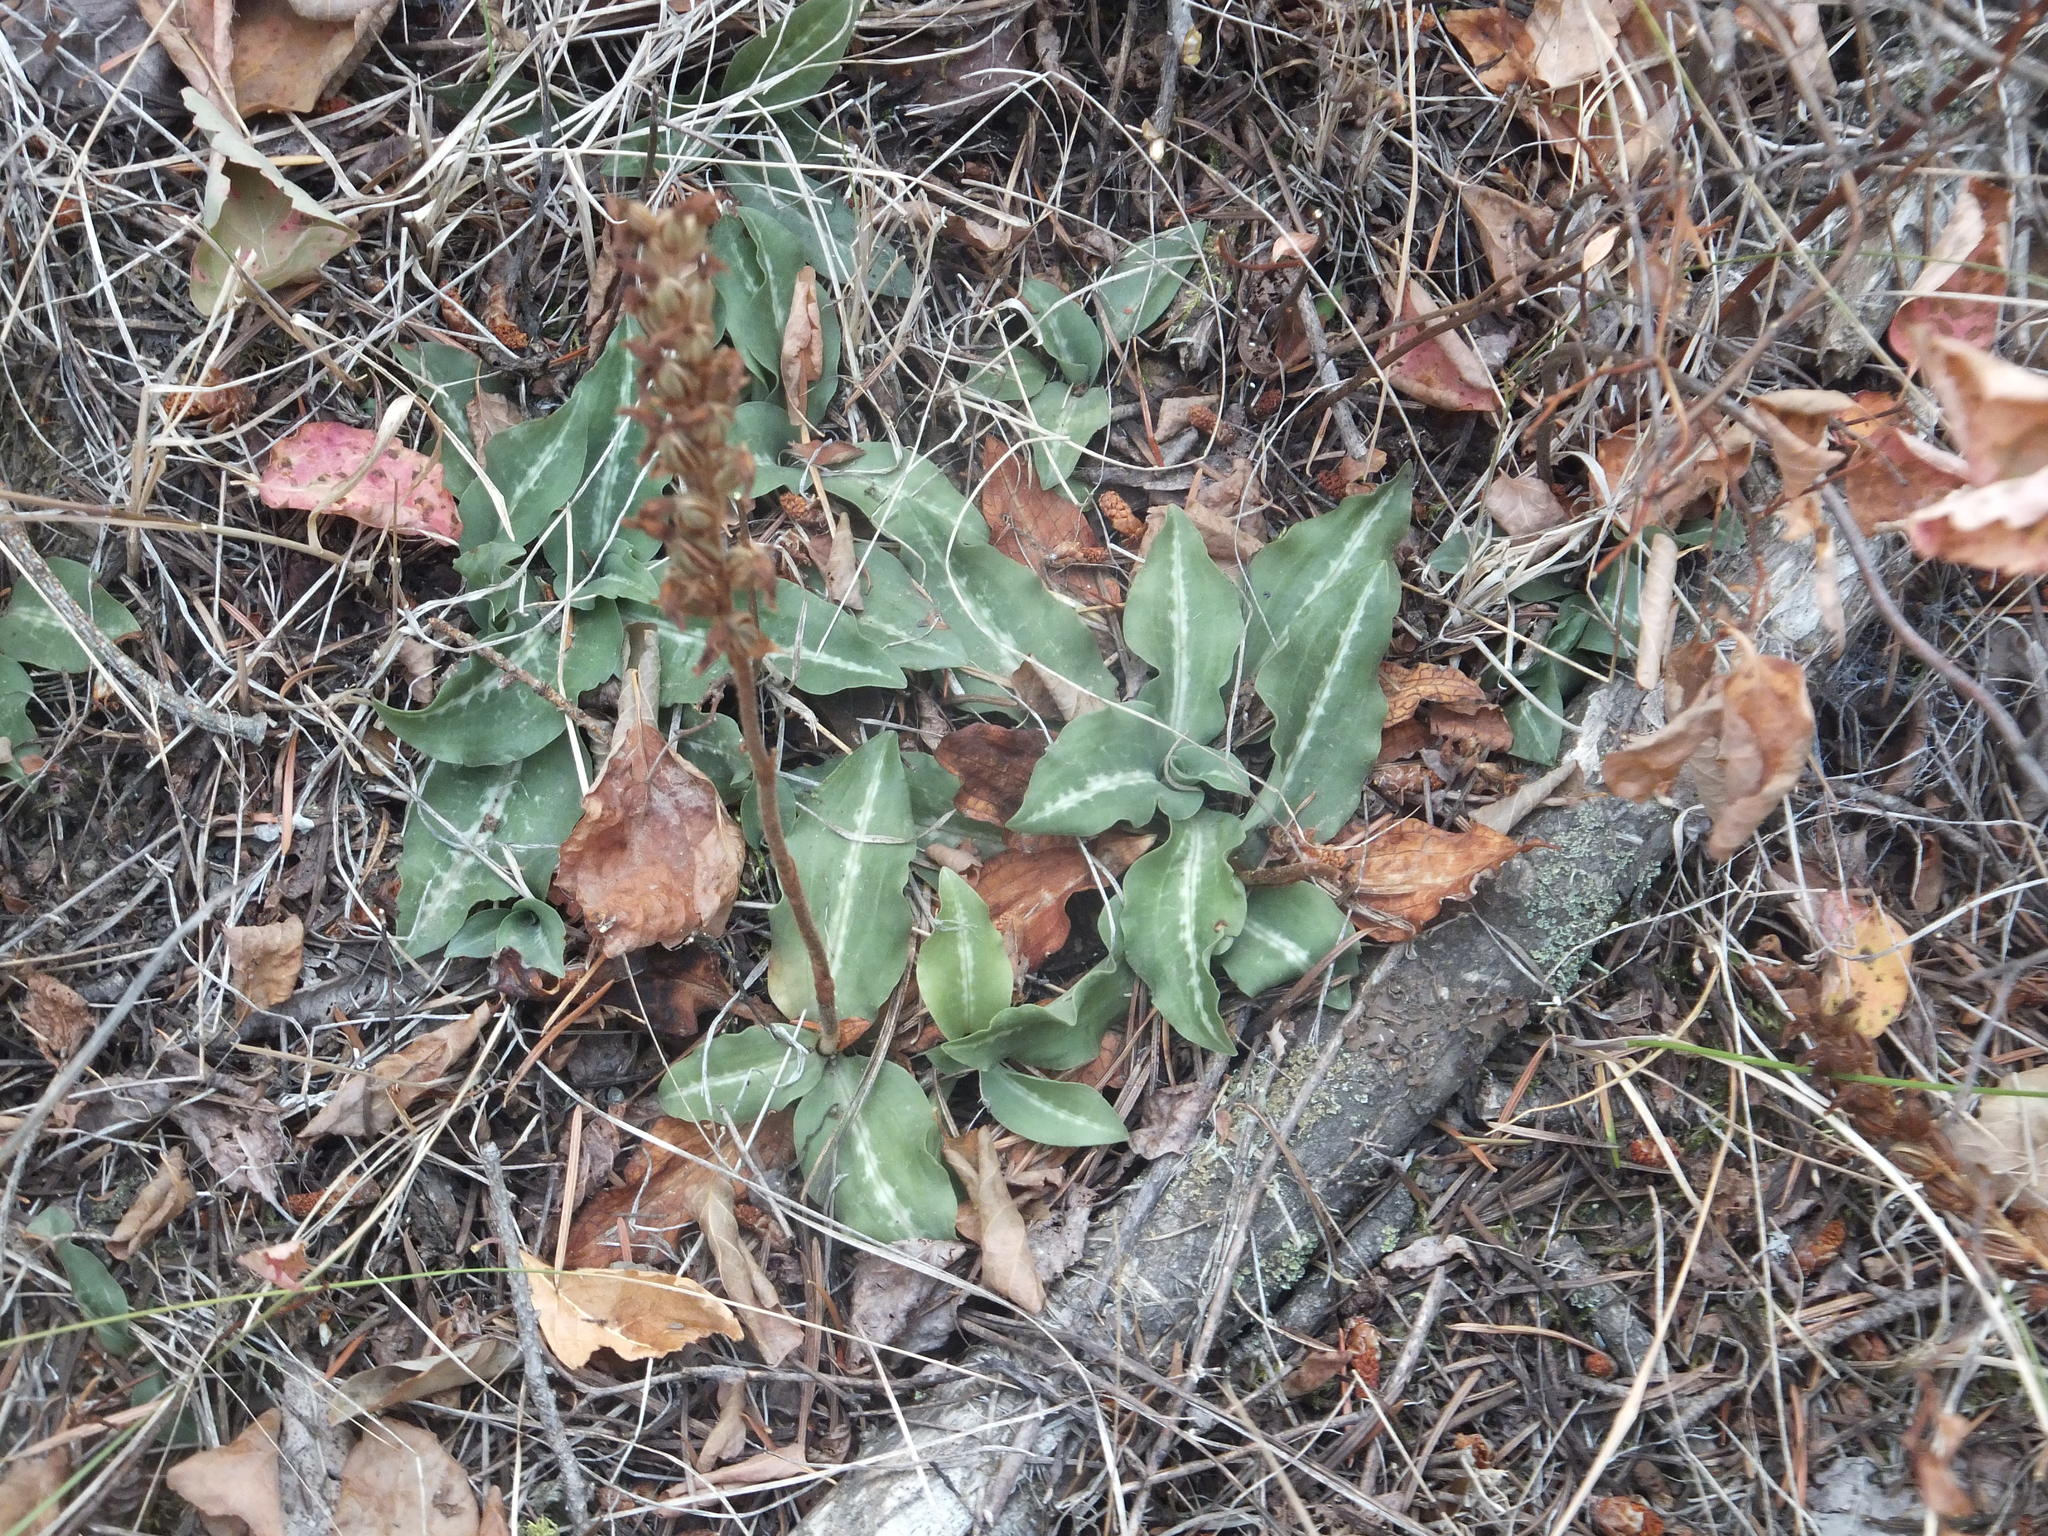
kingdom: Plantae
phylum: Tracheophyta
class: Liliopsida
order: Asparagales
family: Orchidaceae
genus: Goodyera
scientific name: Goodyera oblongifolia
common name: Giant rattlesnake-plantain
